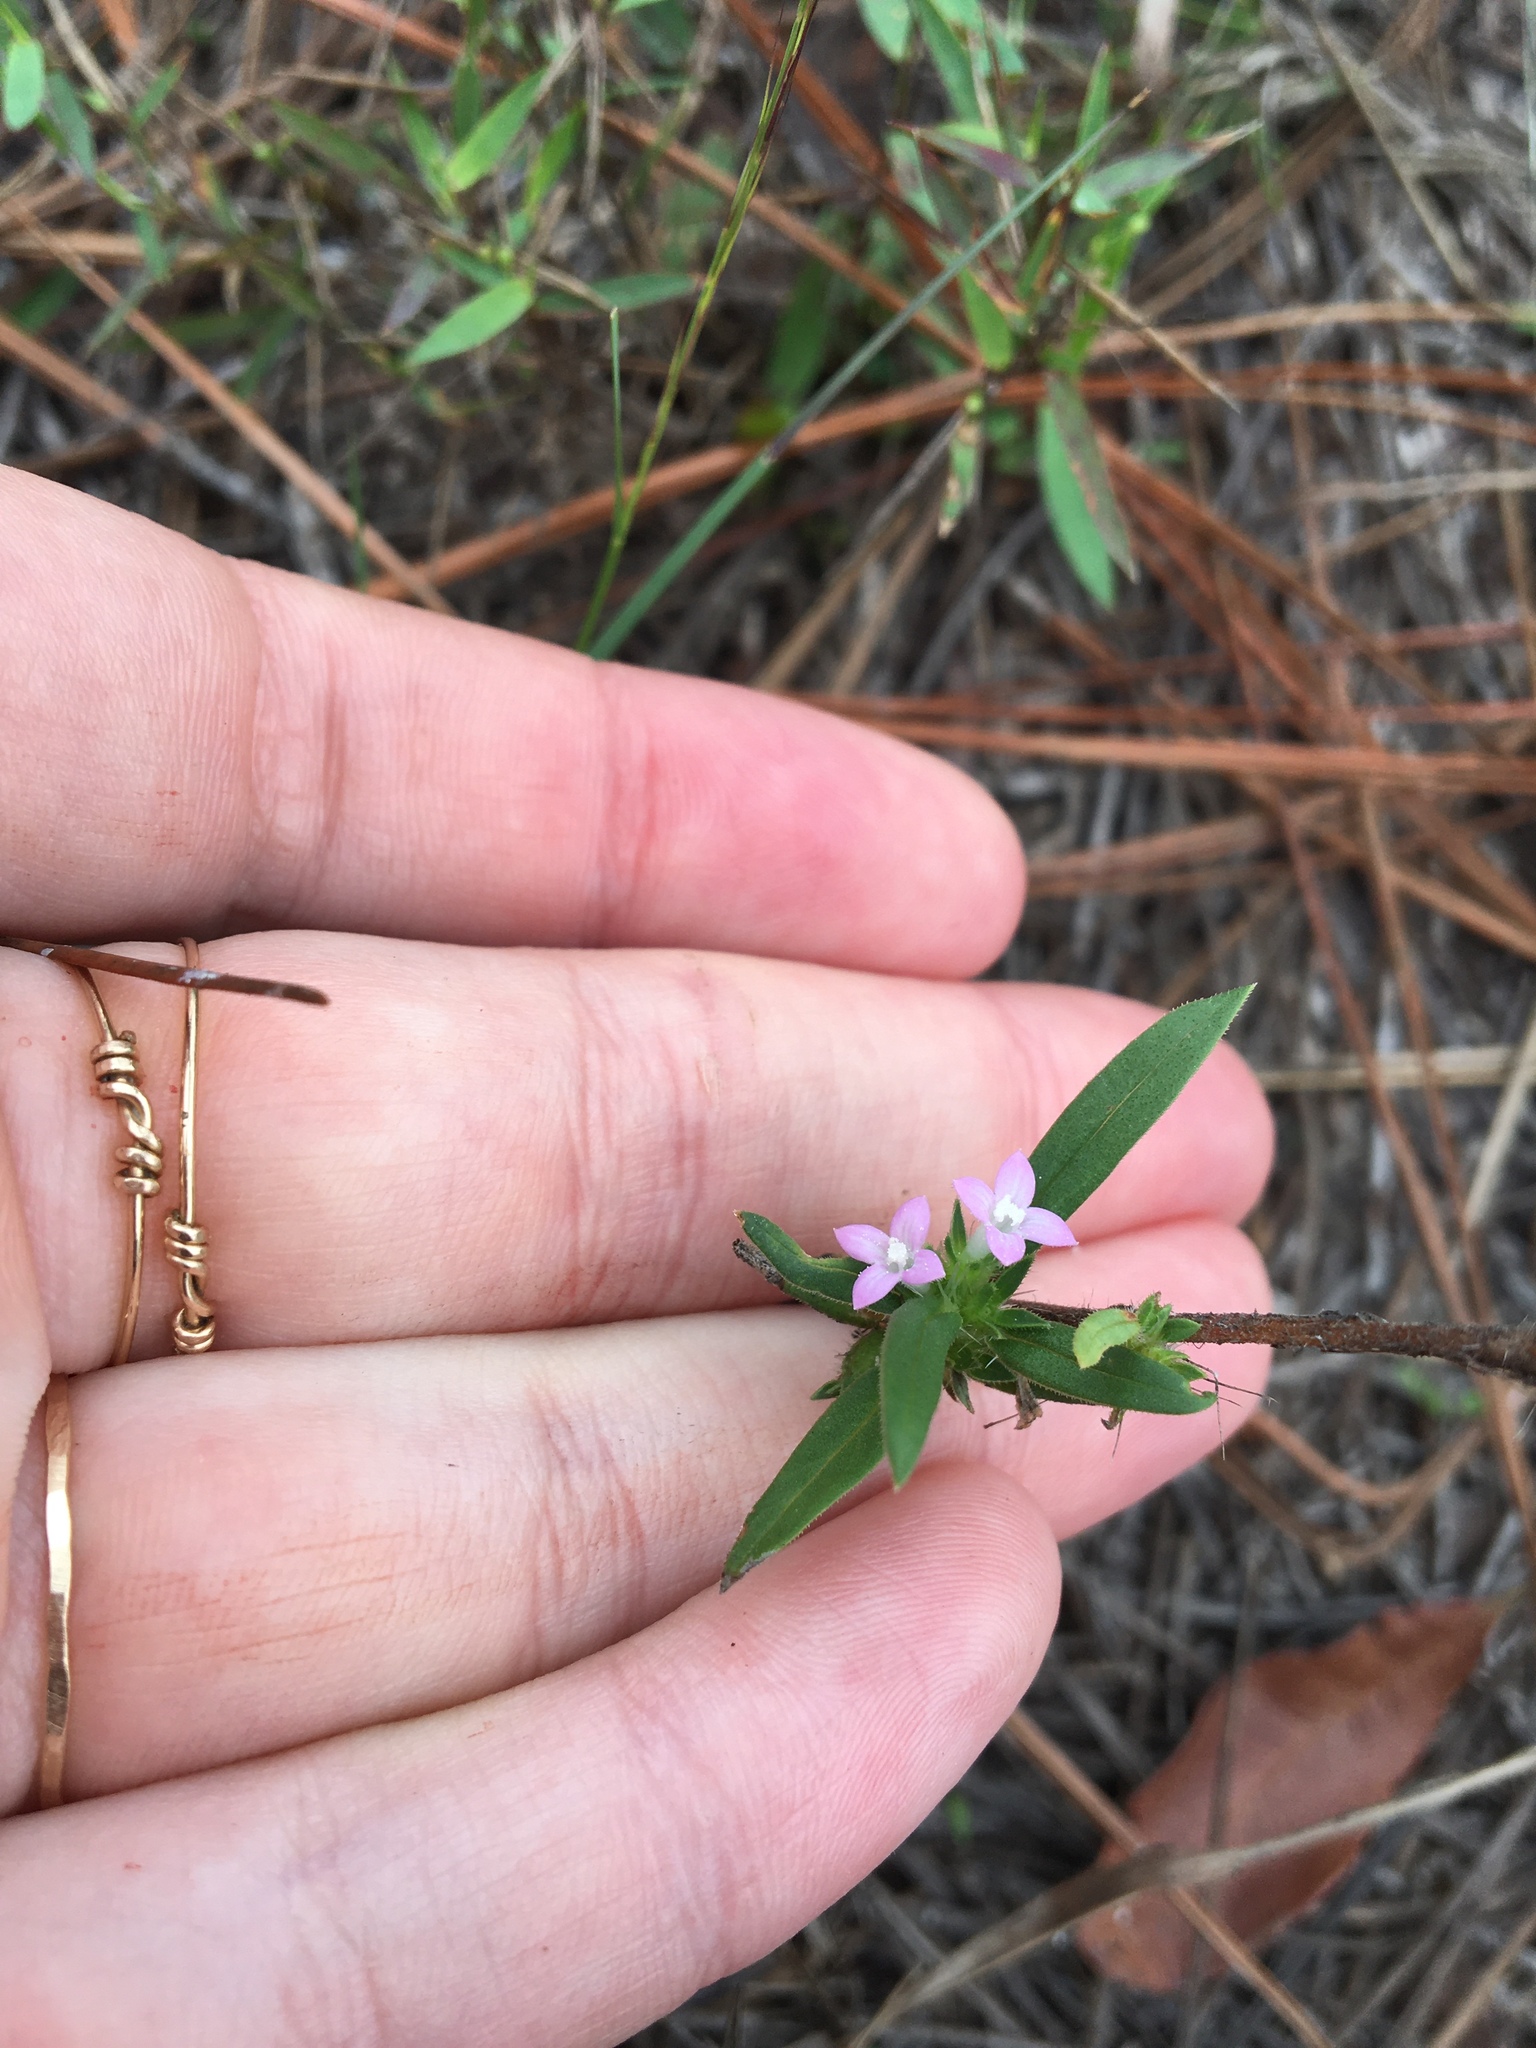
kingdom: Plantae
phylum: Tracheophyta
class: Magnoliopsida
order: Gentianales
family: Rubiaceae
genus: Hexasepalum
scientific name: Hexasepalum teres
